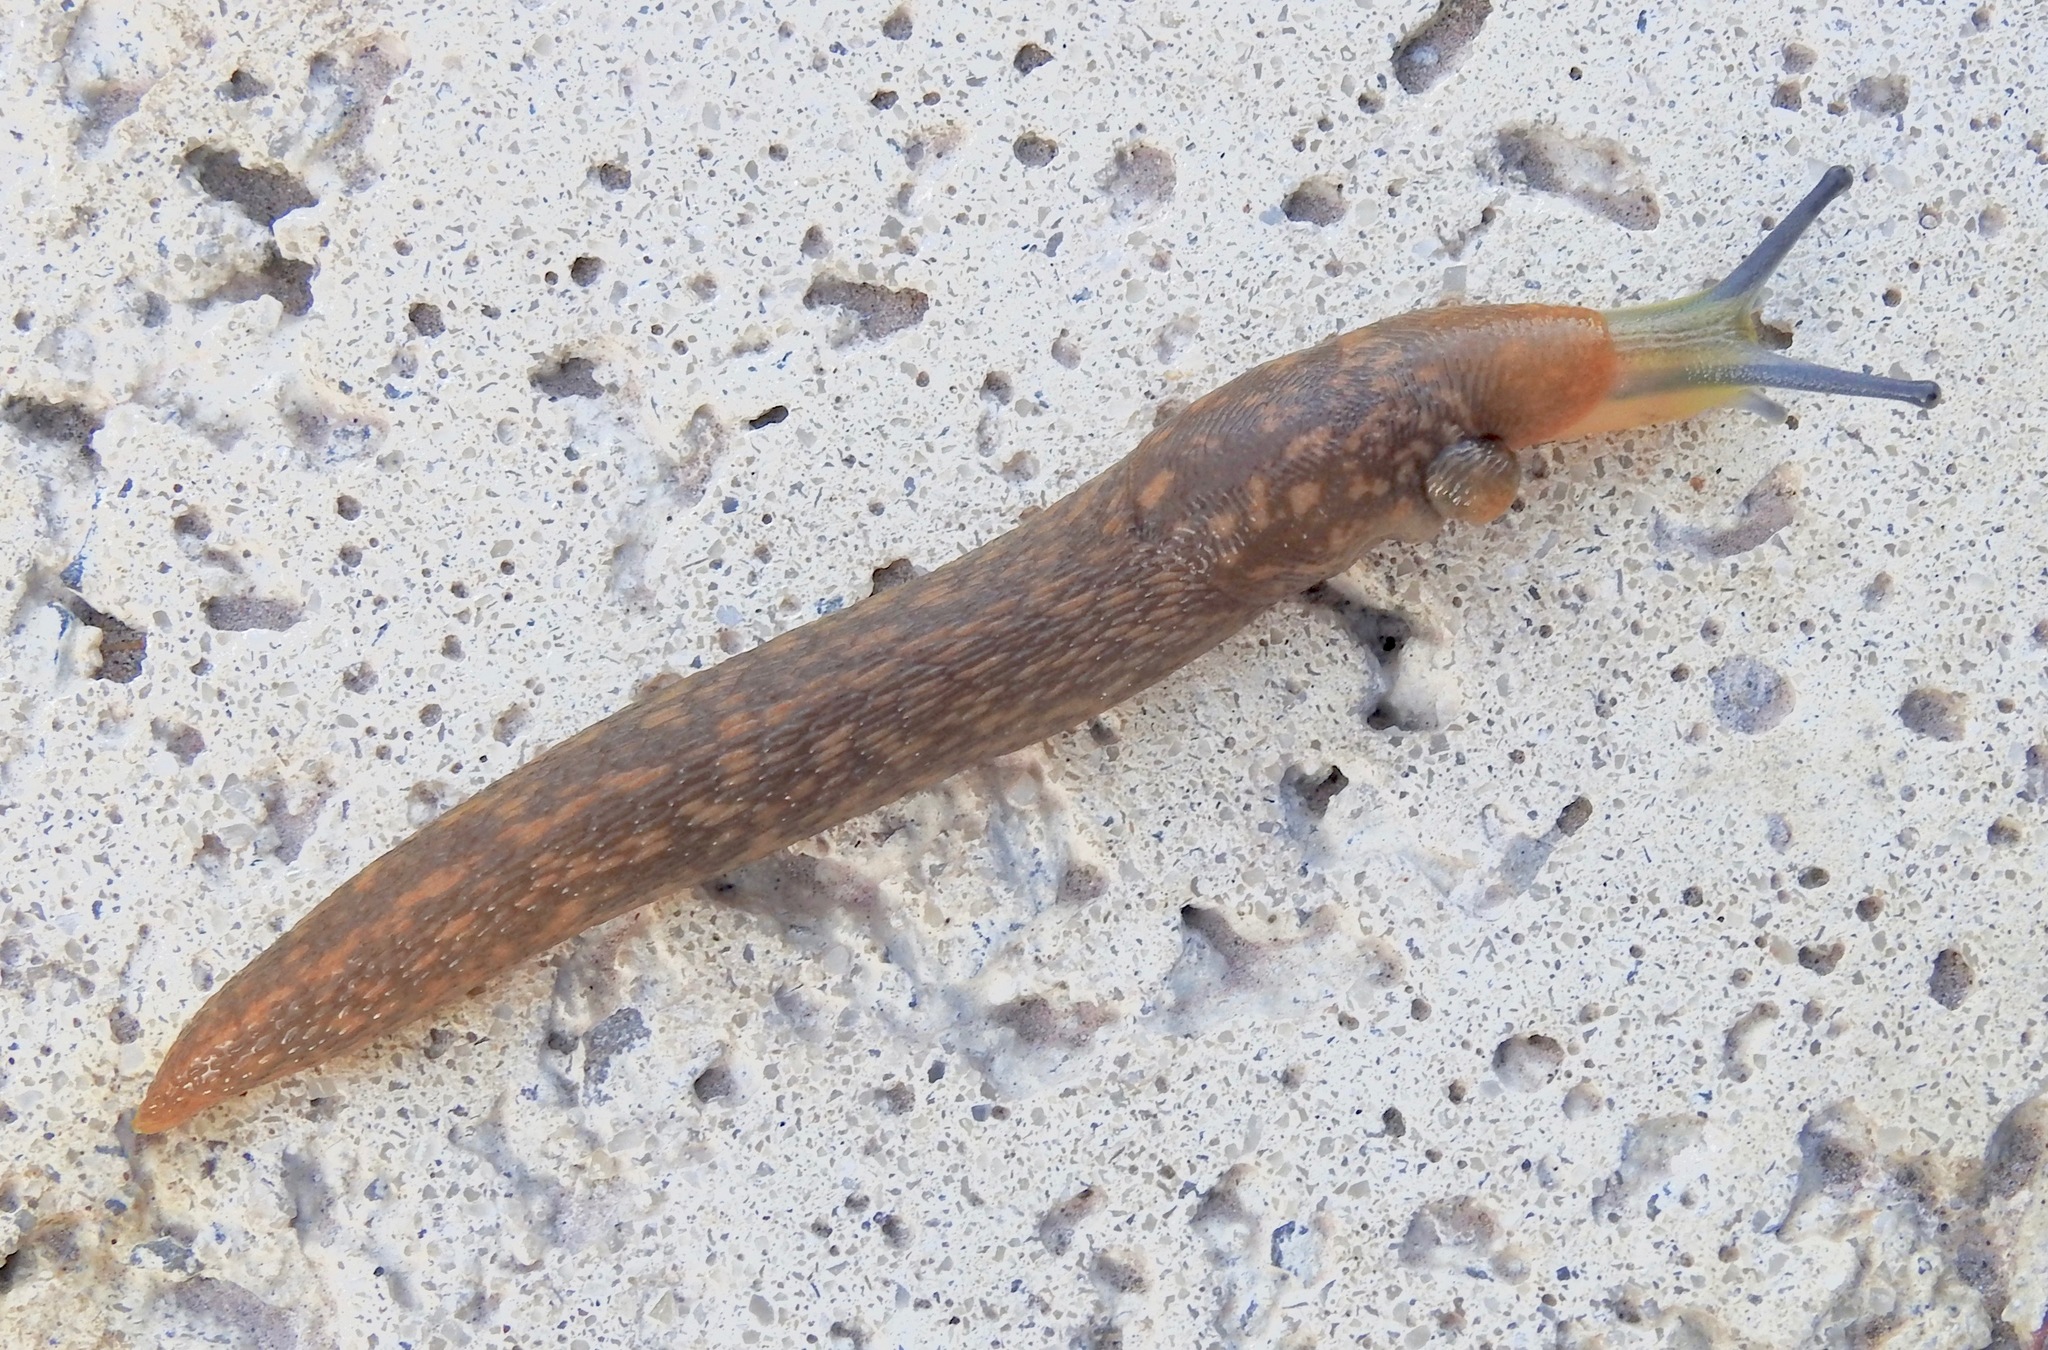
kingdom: Animalia
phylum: Mollusca
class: Gastropoda
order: Stylommatophora
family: Limacidae
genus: Limacus
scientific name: Limacus flavus
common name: Yellow gardenslug
